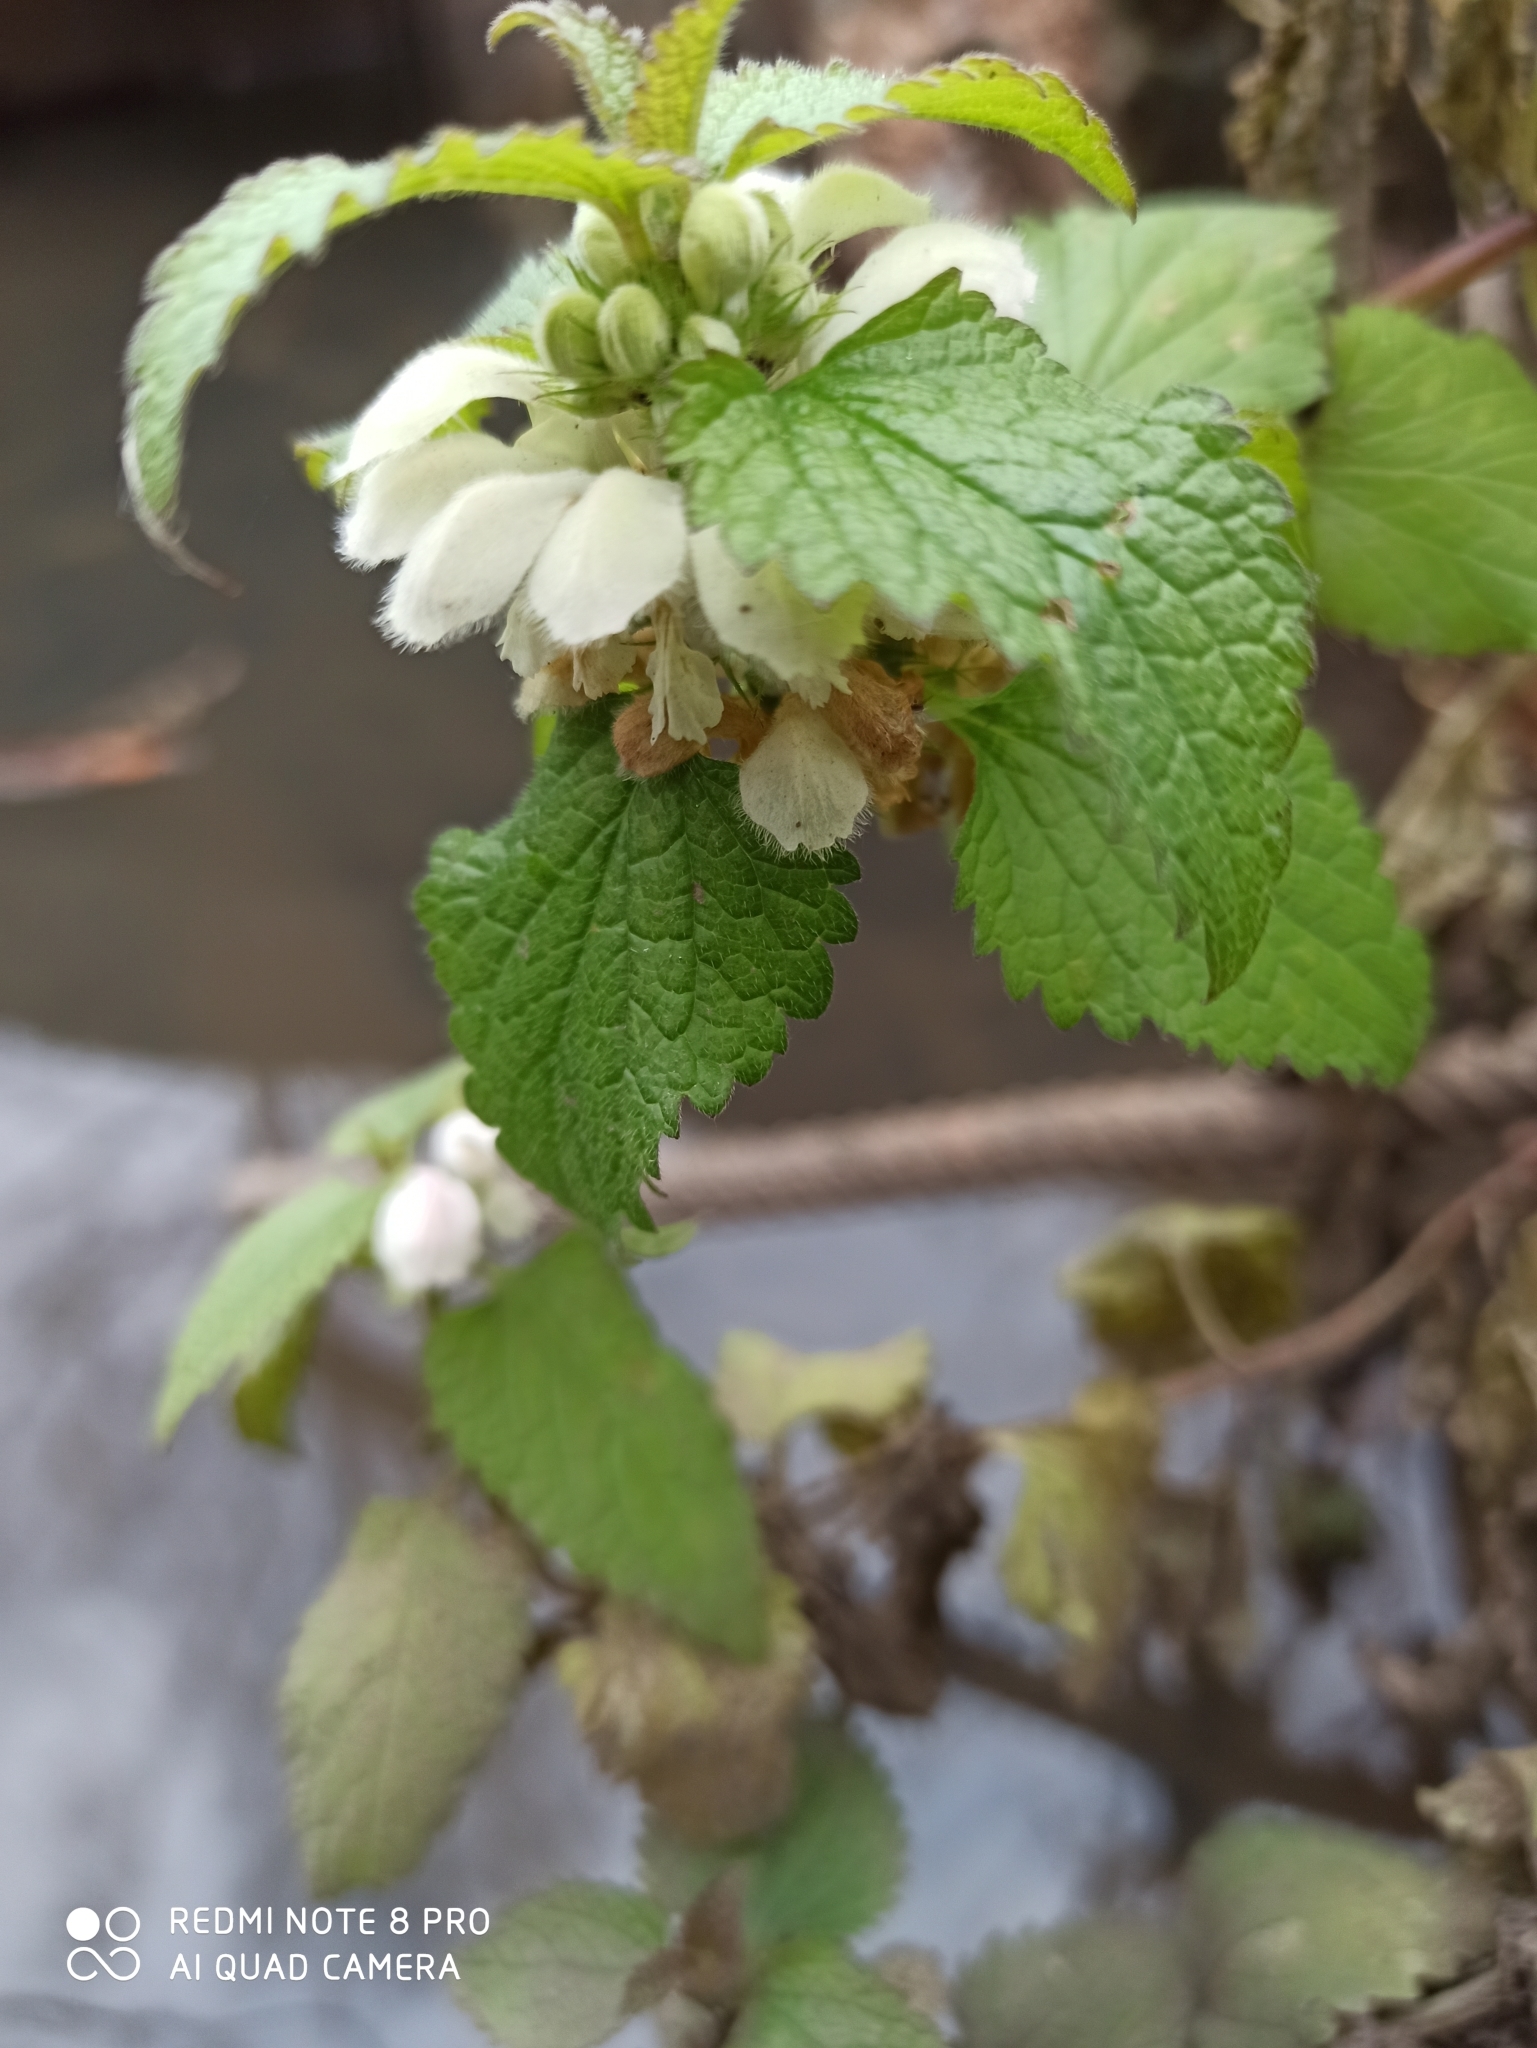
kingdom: Plantae
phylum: Tracheophyta
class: Magnoliopsida
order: Lamiales
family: Lamiaceae
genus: Lamium
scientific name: Lamium album
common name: White dead-nettle
